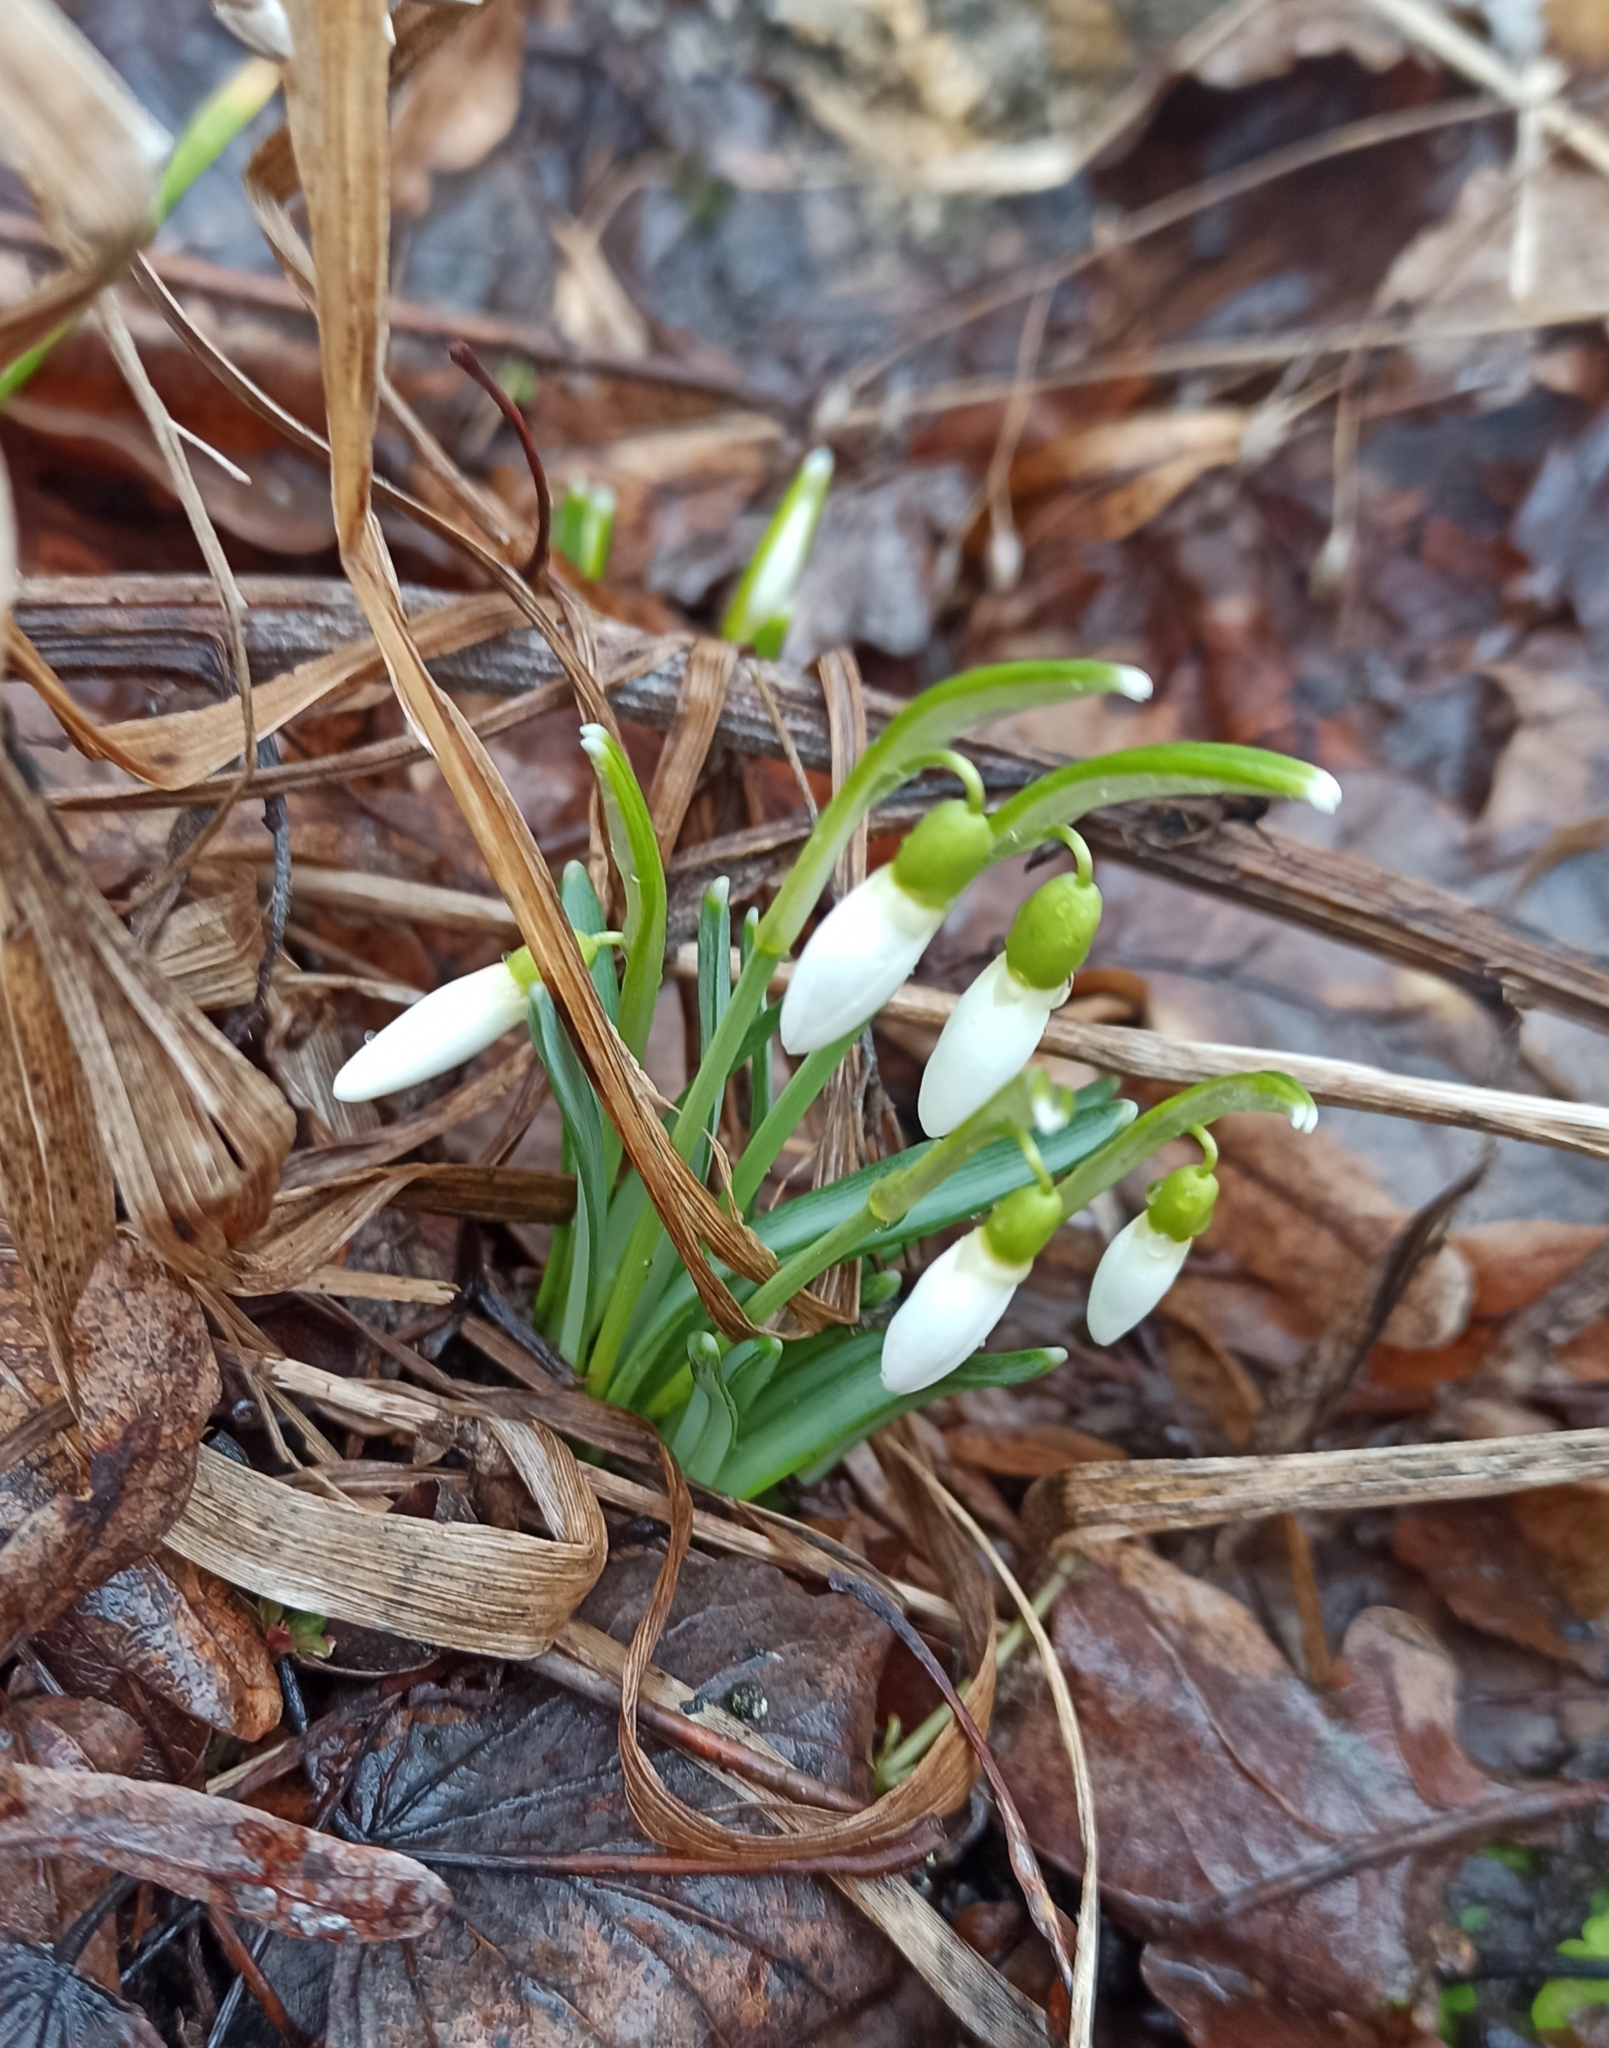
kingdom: Plantae
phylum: Tracheophyta
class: Liliopsida
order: Asparagales
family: Amaryllidaceae
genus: Galanthus
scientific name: Galanthus nivalis
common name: Snowdrop
